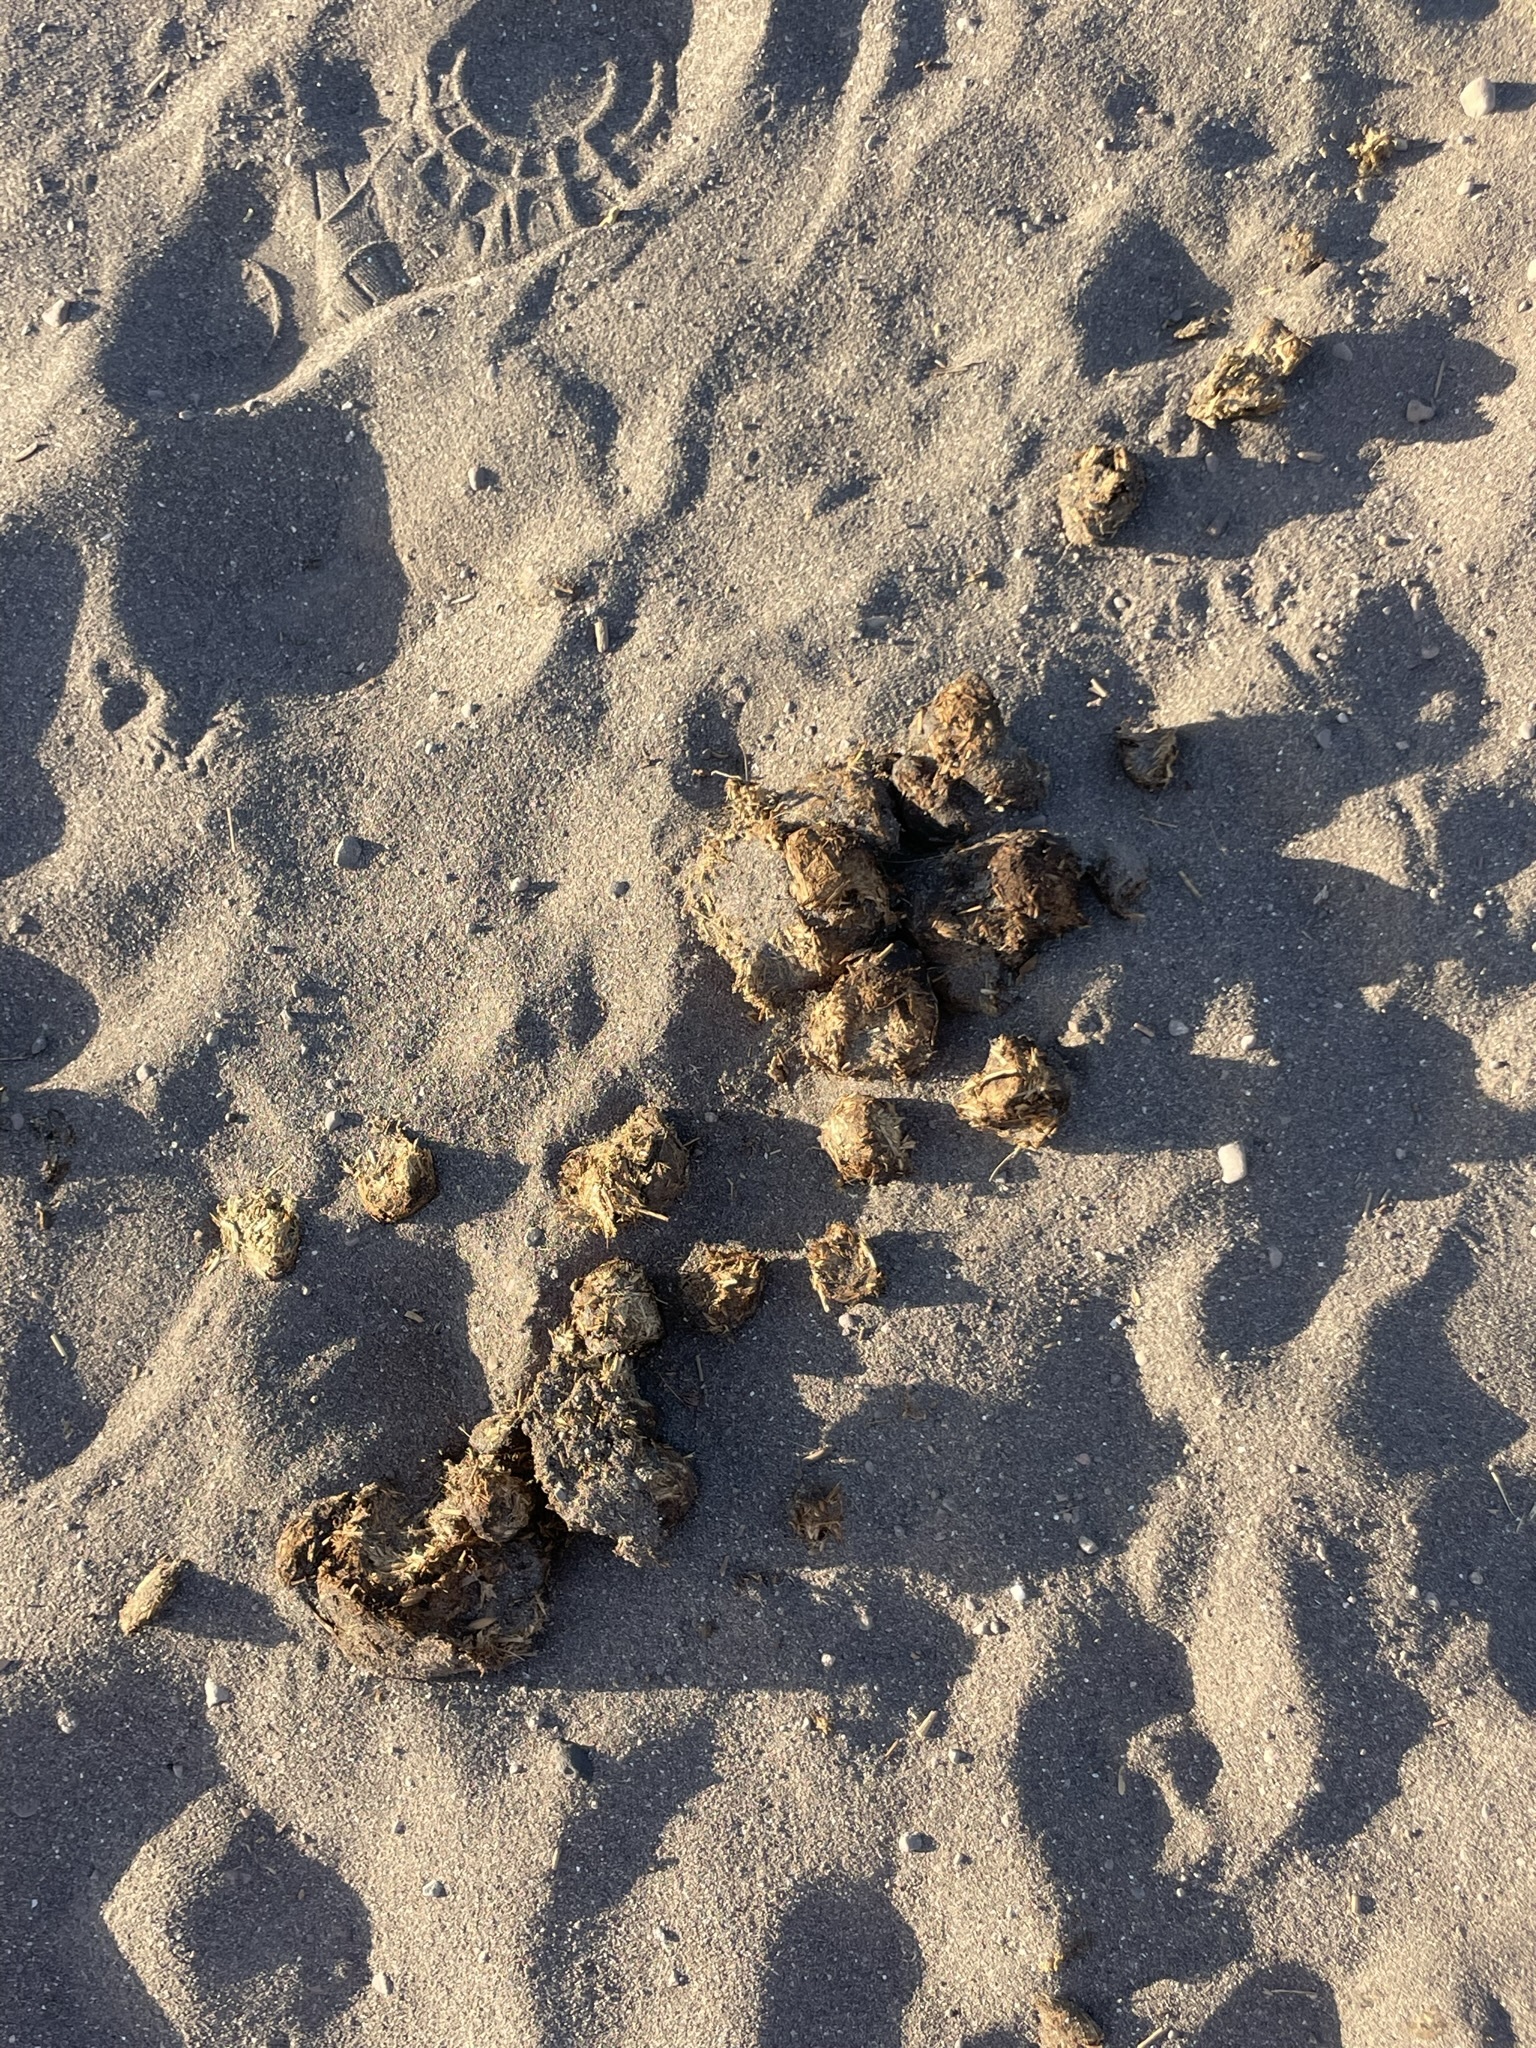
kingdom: Animalia
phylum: Chordata
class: Mammalia
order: Perissodactyla
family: Equidae
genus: Equus
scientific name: Equus caballus
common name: Horse
